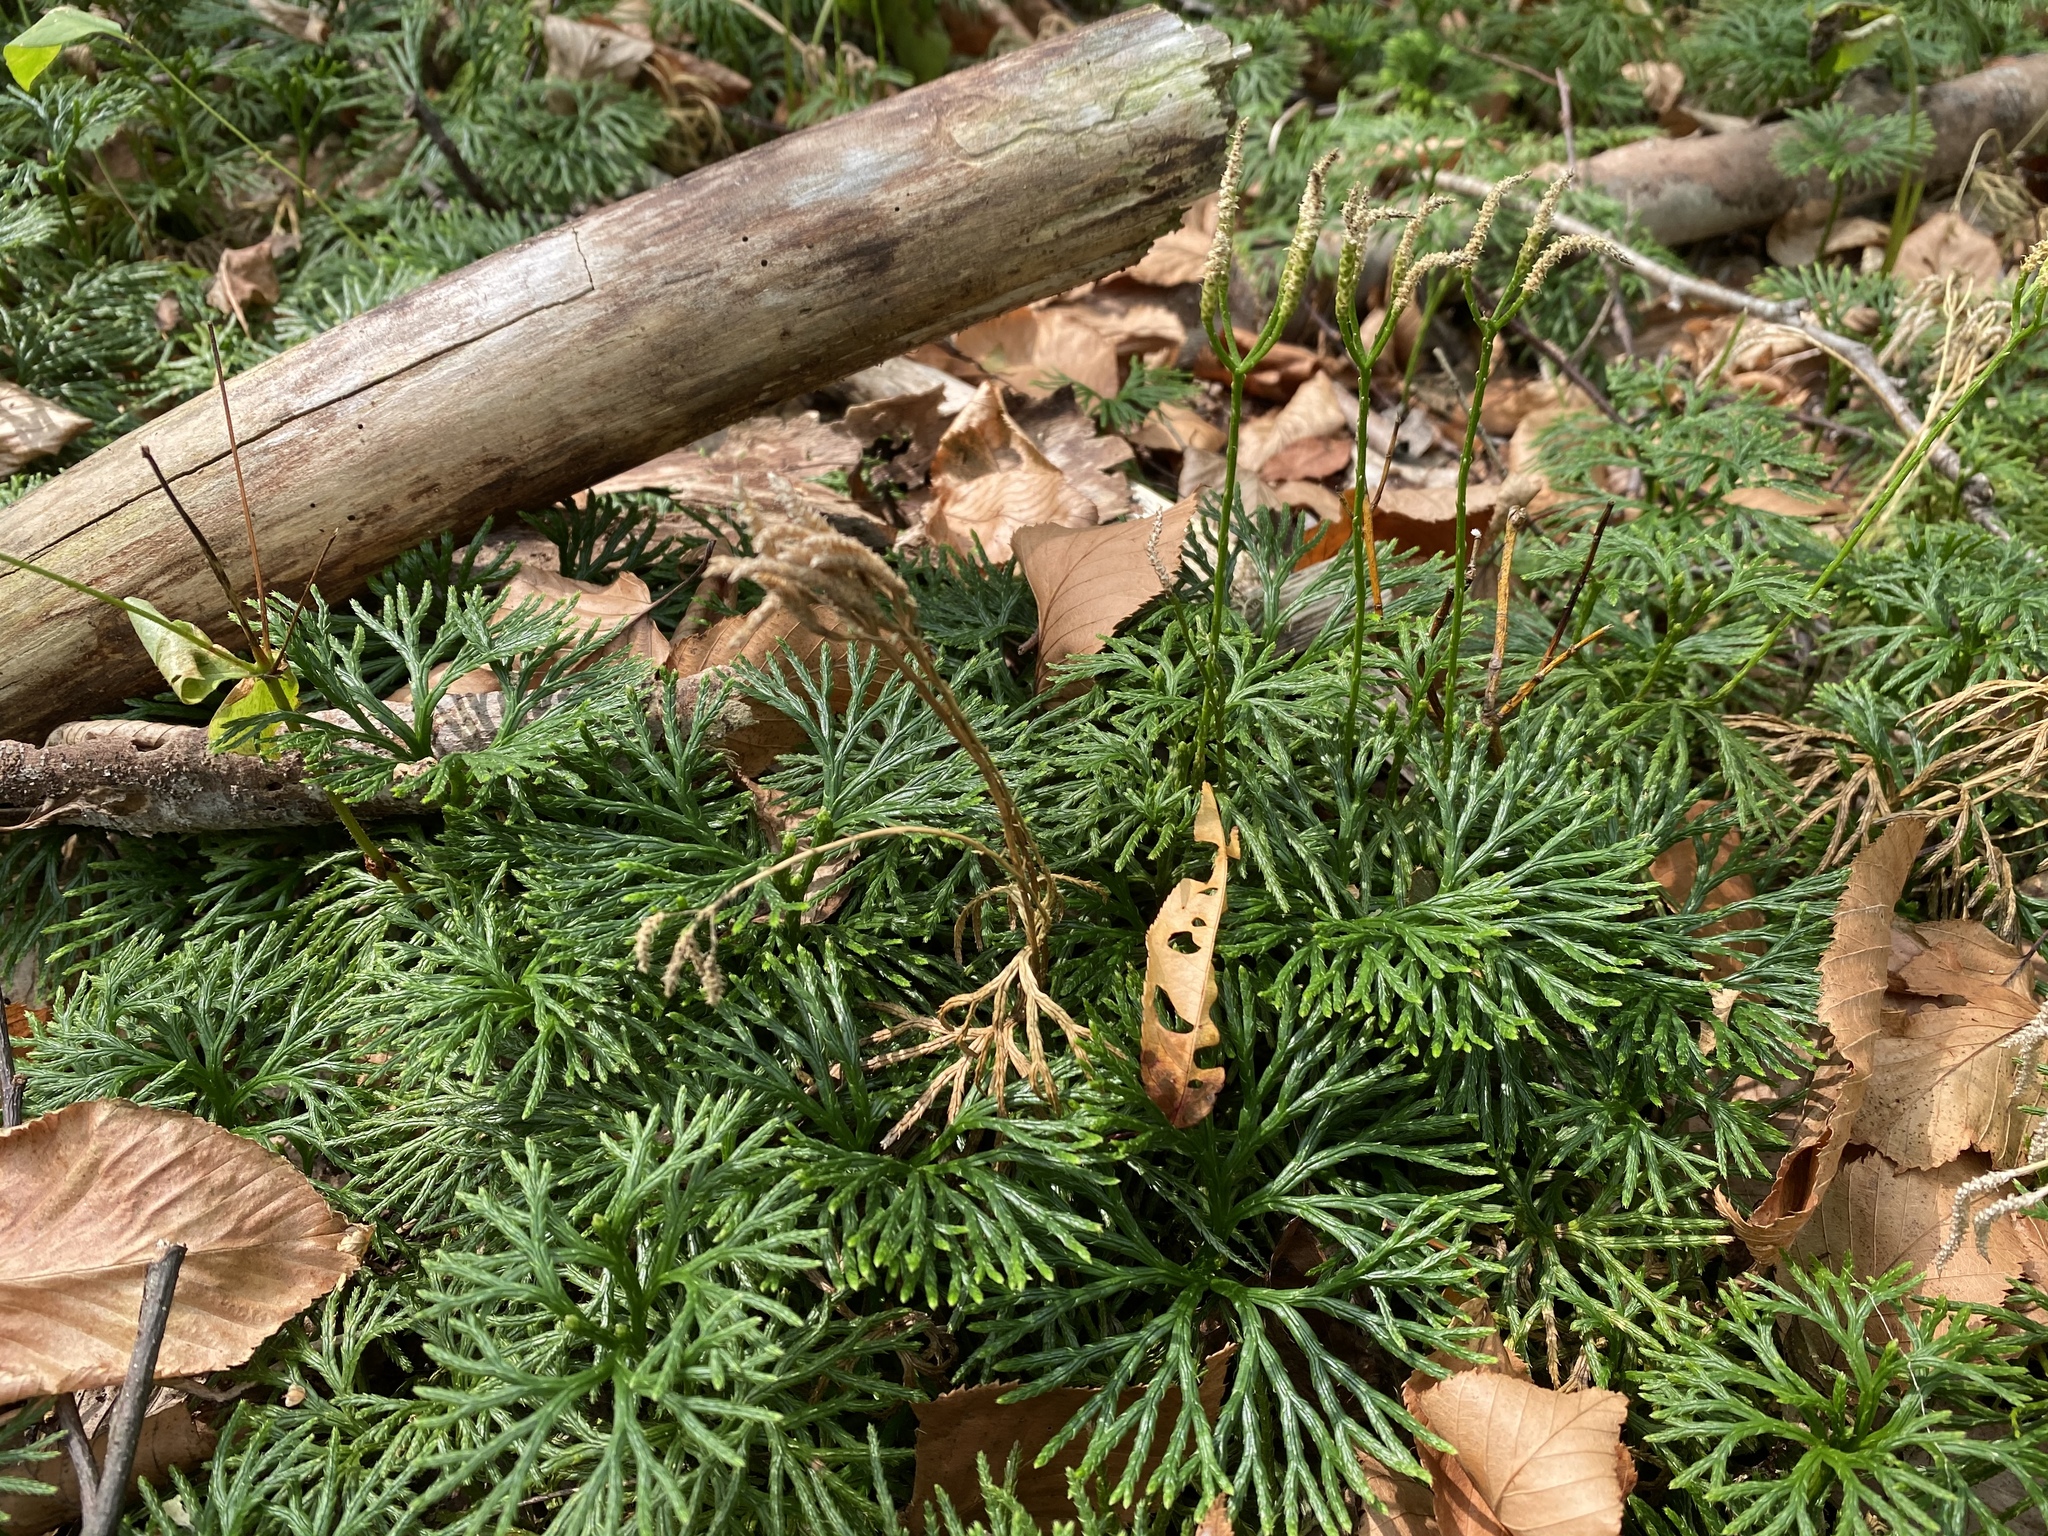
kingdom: Plantae
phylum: Tracheophyta
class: Lycopodiopsida
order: Lycopodiales
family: Lycopodiaceae
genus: Diphasiastrum
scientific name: Diphasiastrum digitatum
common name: Southern running-pine
